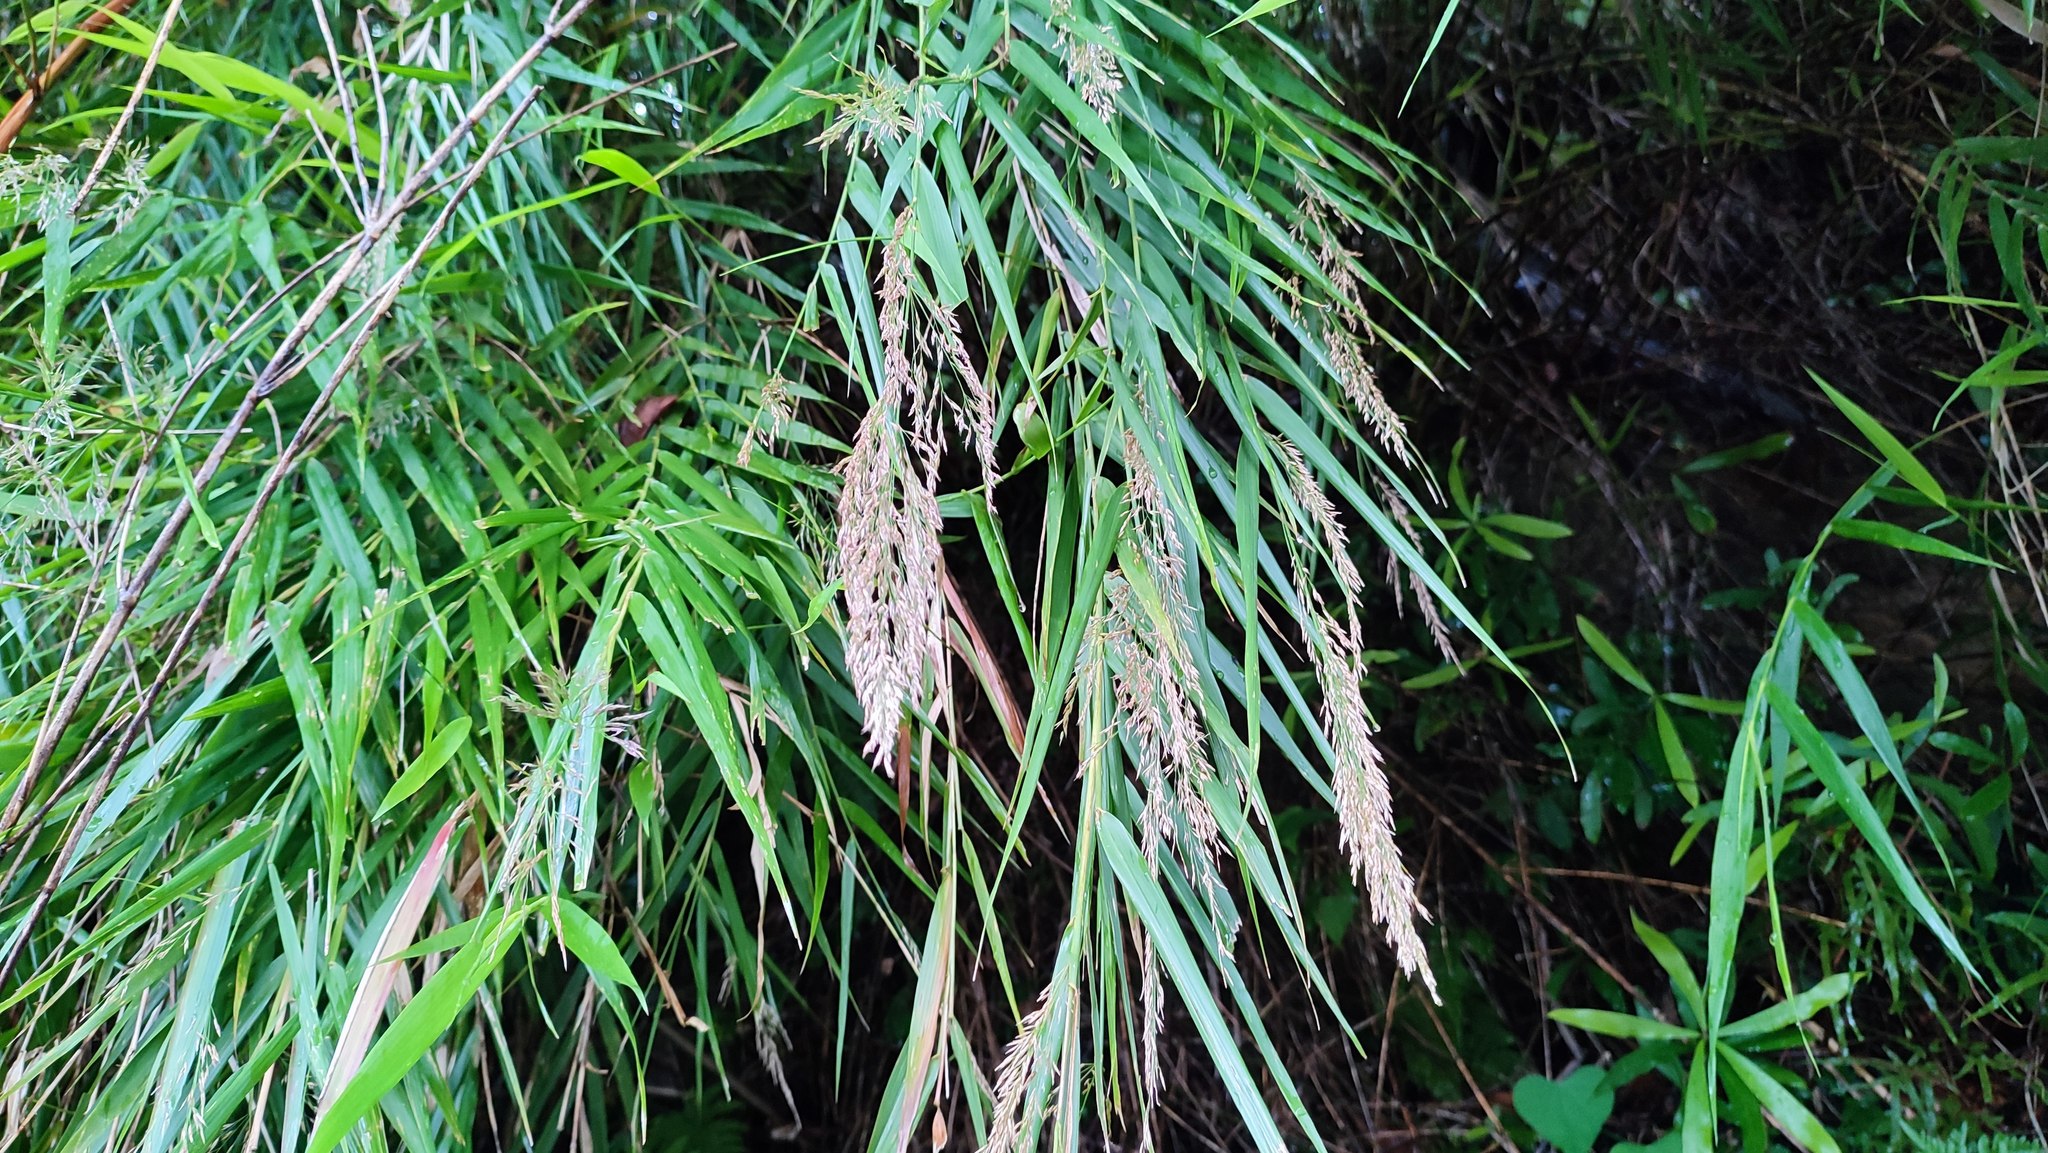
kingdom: Plantae
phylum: Tracheophyta
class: Liliopsida
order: Poales
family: Poaceae
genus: Arundo
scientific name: Arundo formosana
